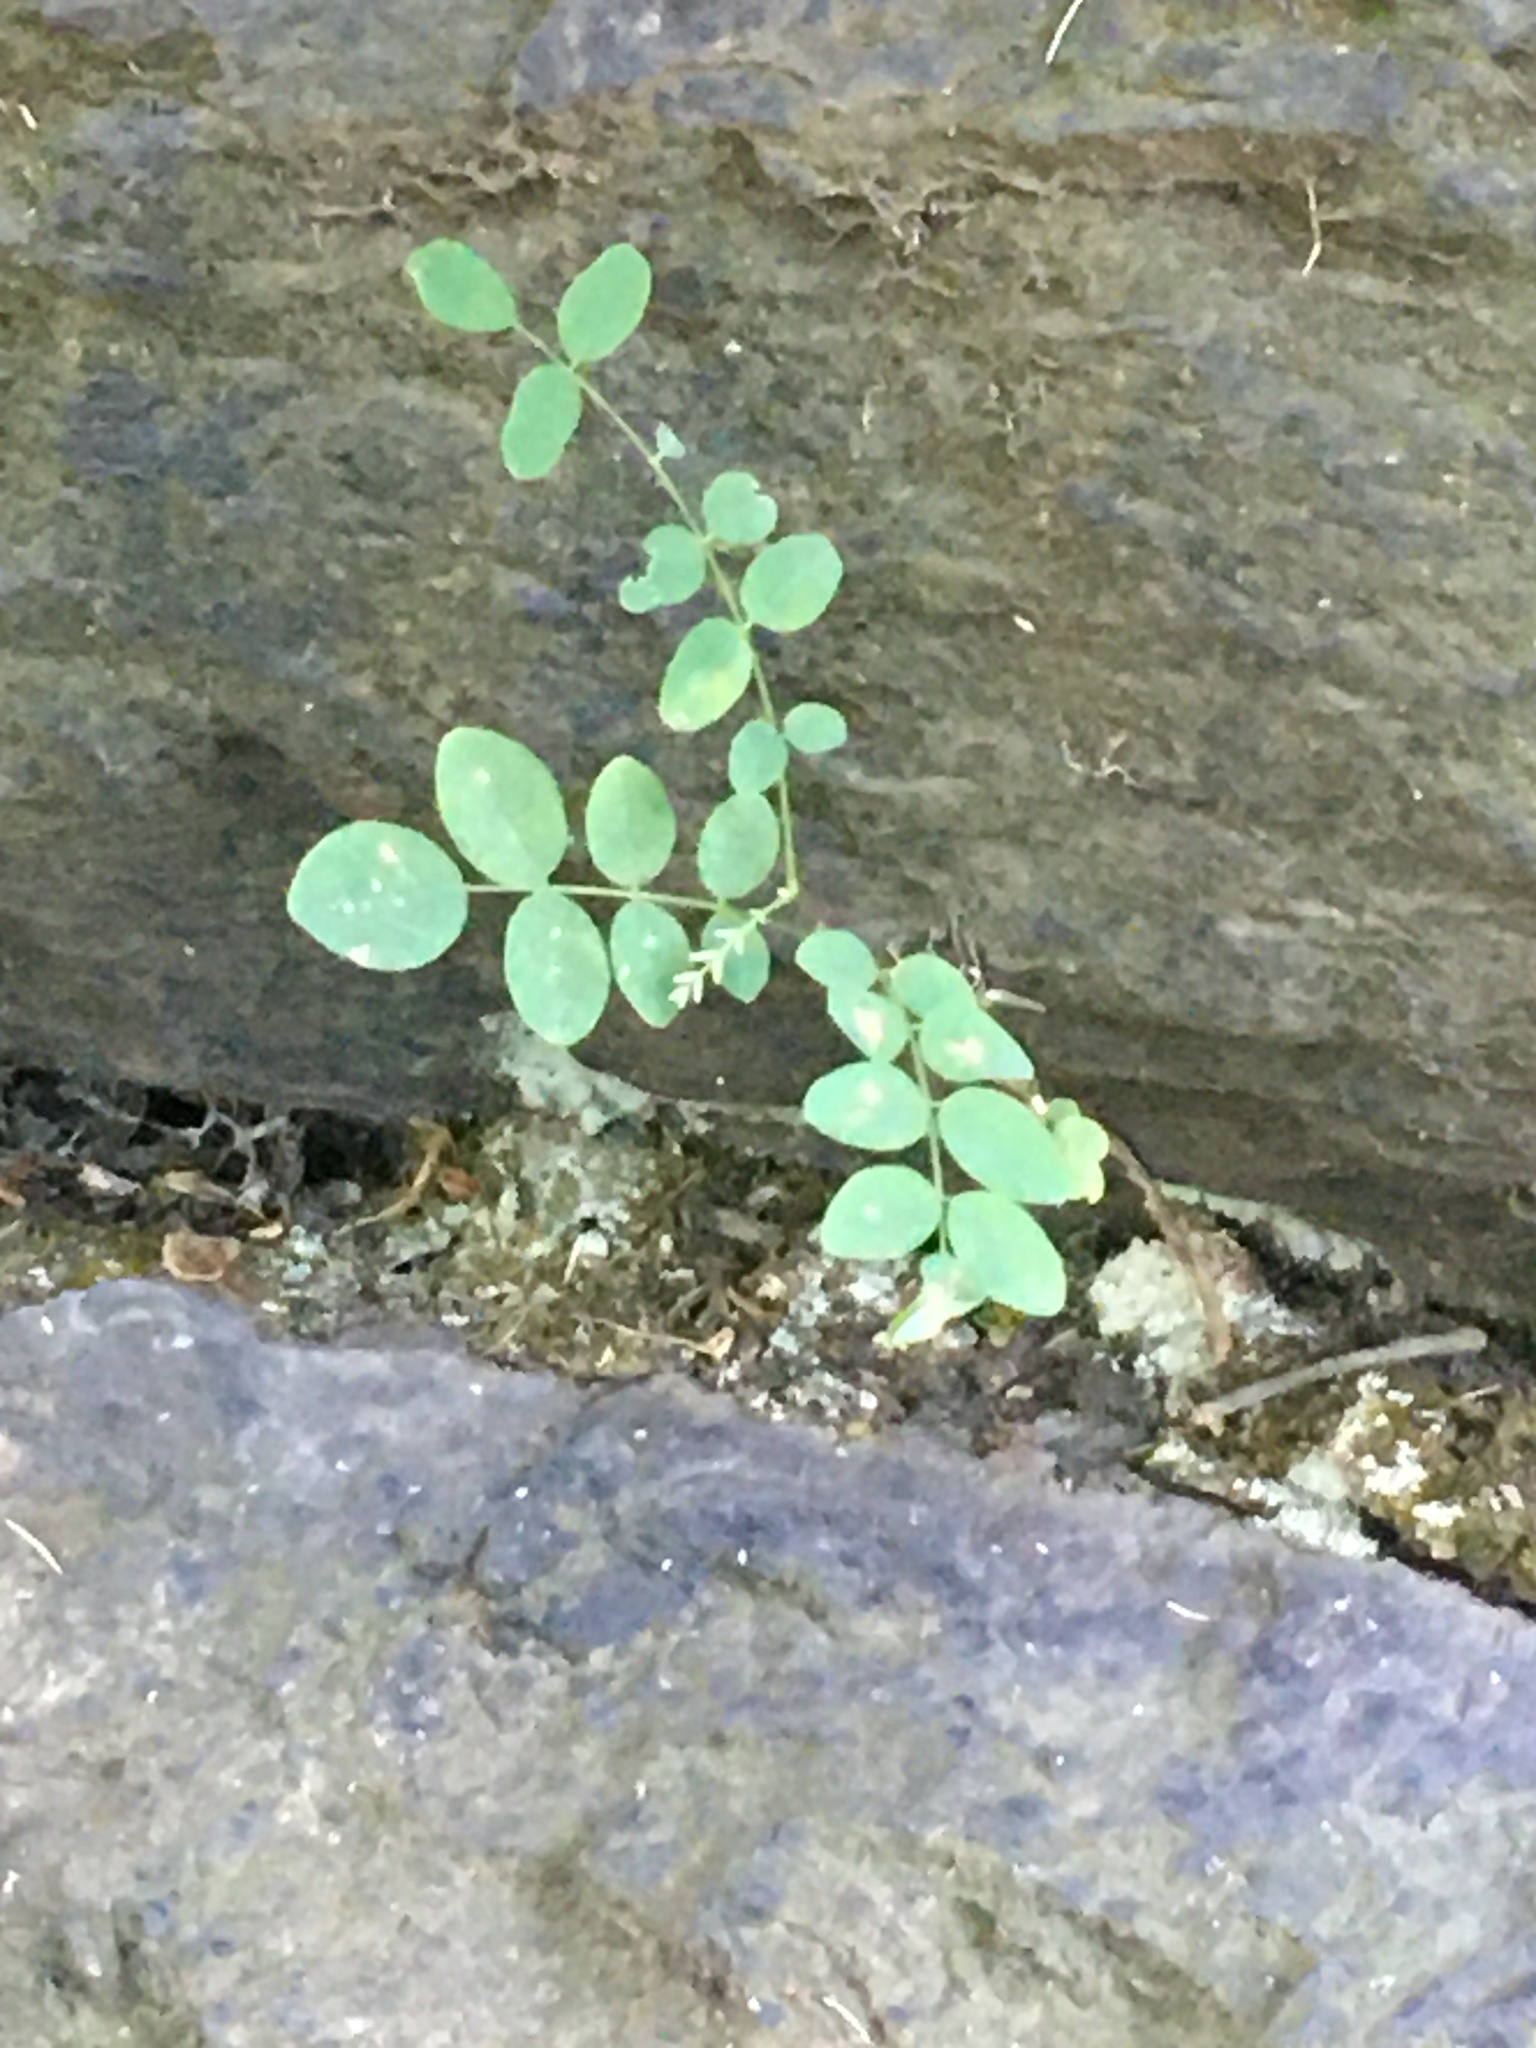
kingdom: Plantae
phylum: Tracheophyta
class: Magnoliopsida
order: Fabales
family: Fabaceae
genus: Robinia
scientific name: Robinia pseudoacacia
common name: Black locust
